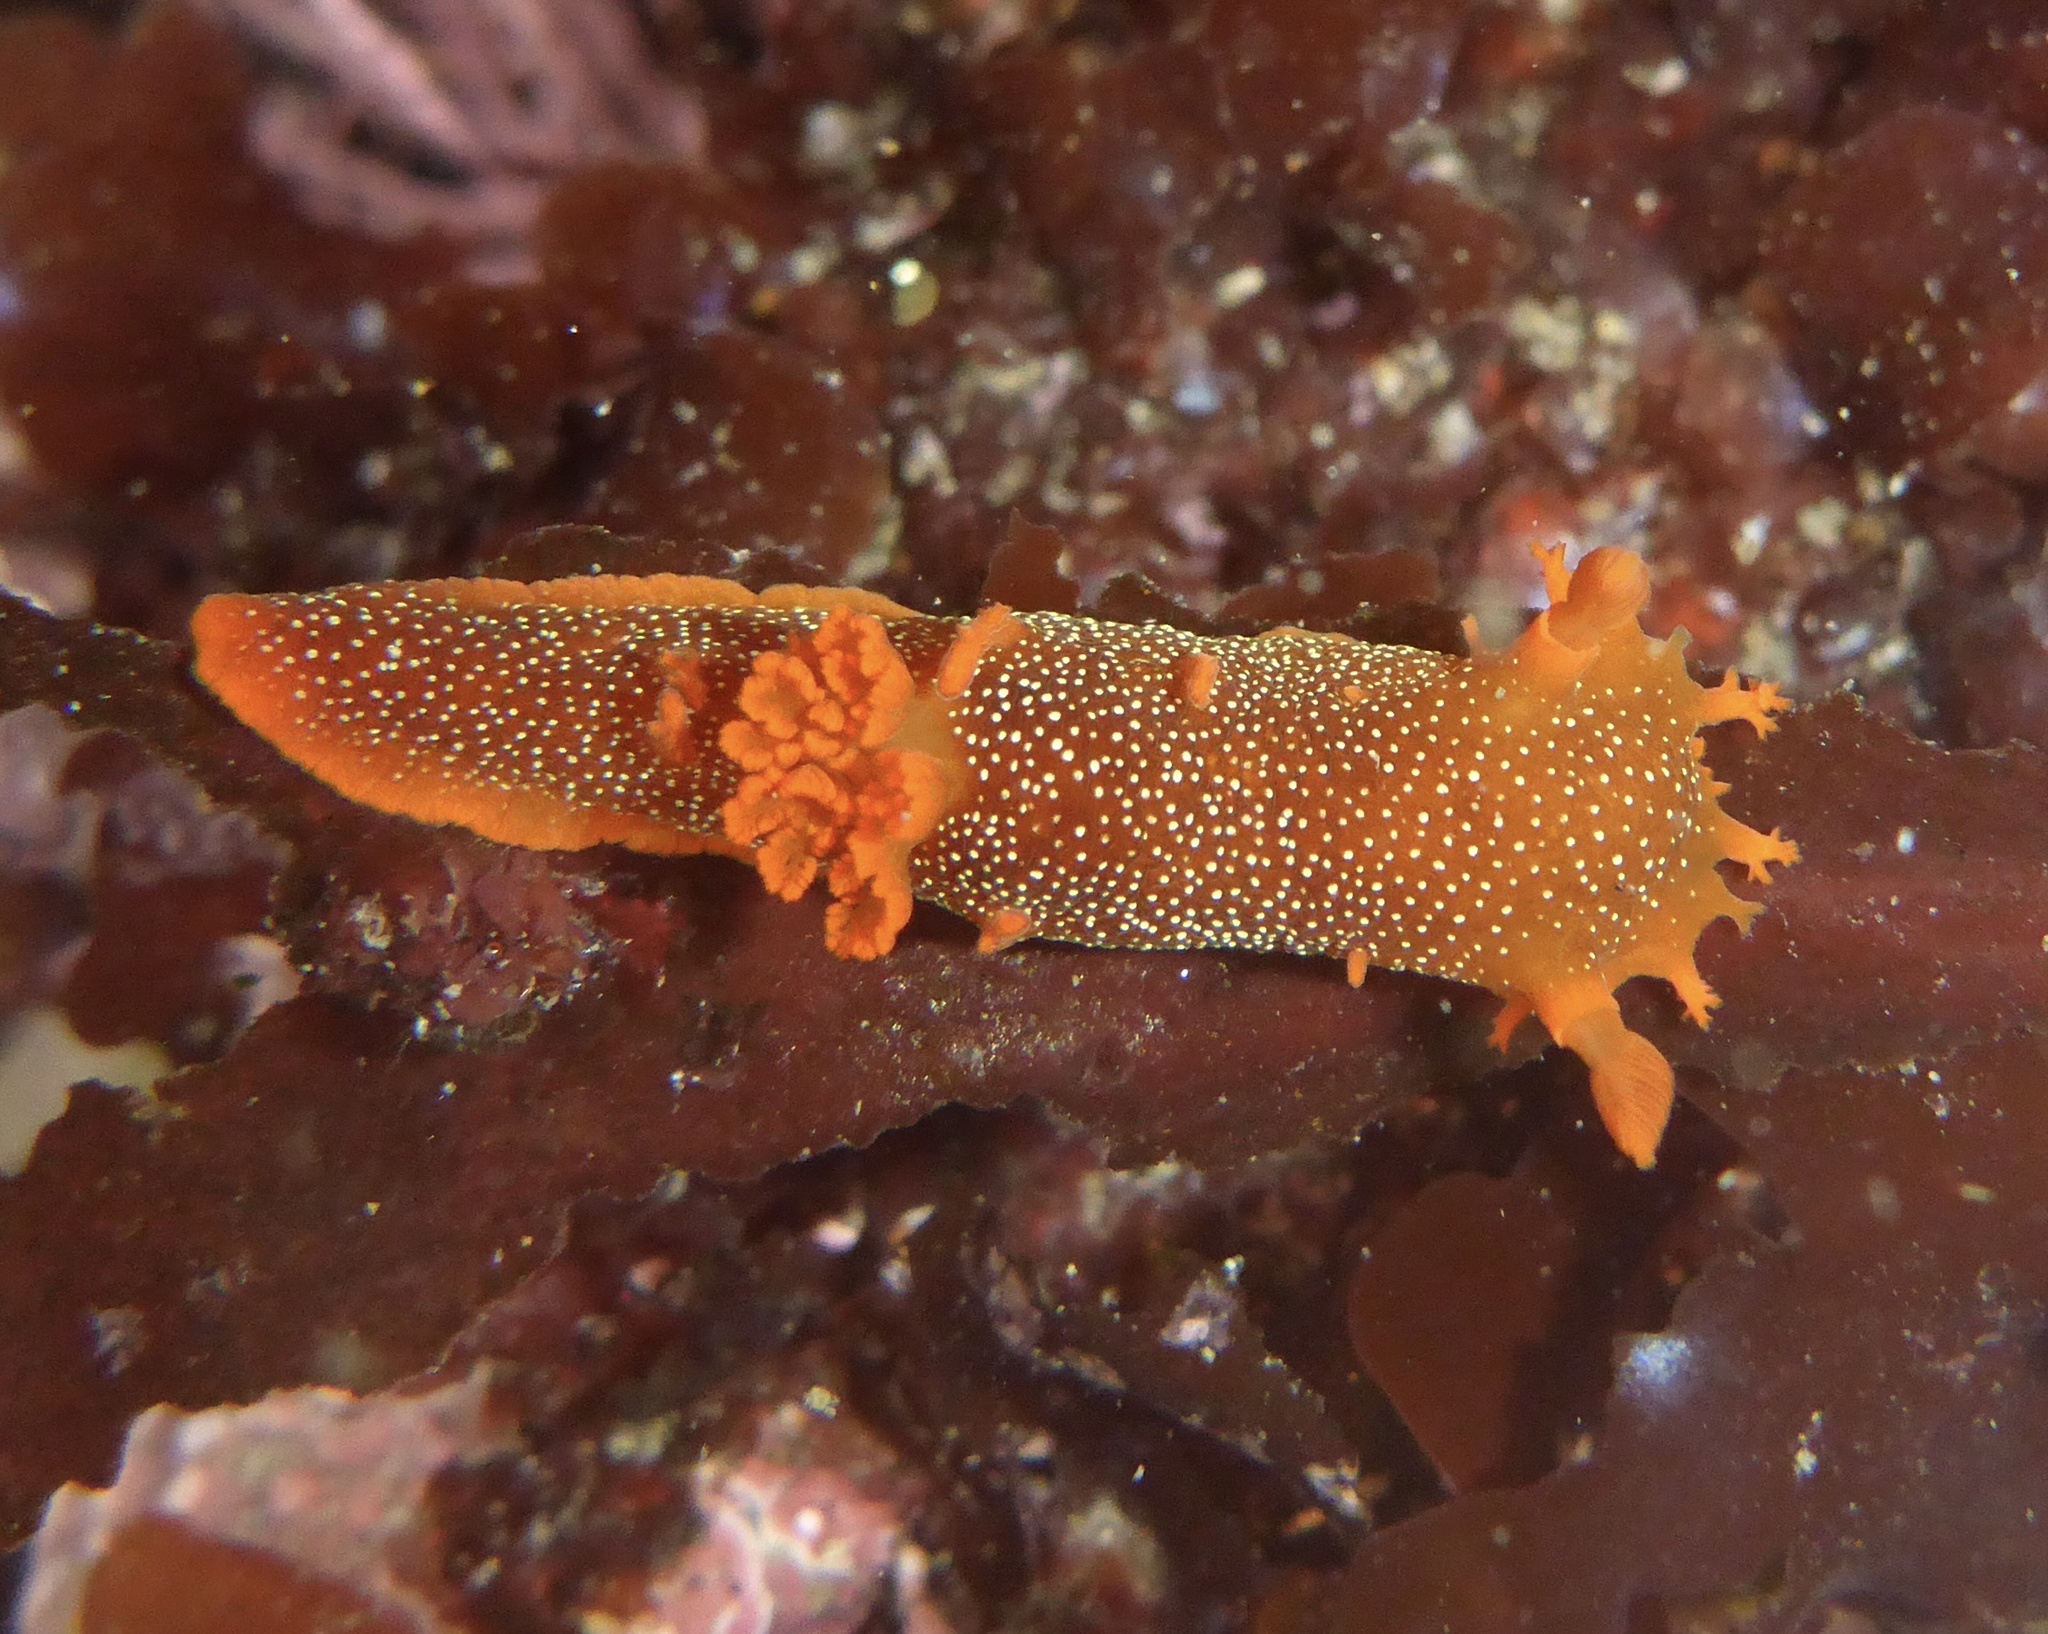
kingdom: Animalia
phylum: Mollusca
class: Gastropoda
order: Nudibranchia
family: Polyceridae
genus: Triopha
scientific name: Triopha maculata
